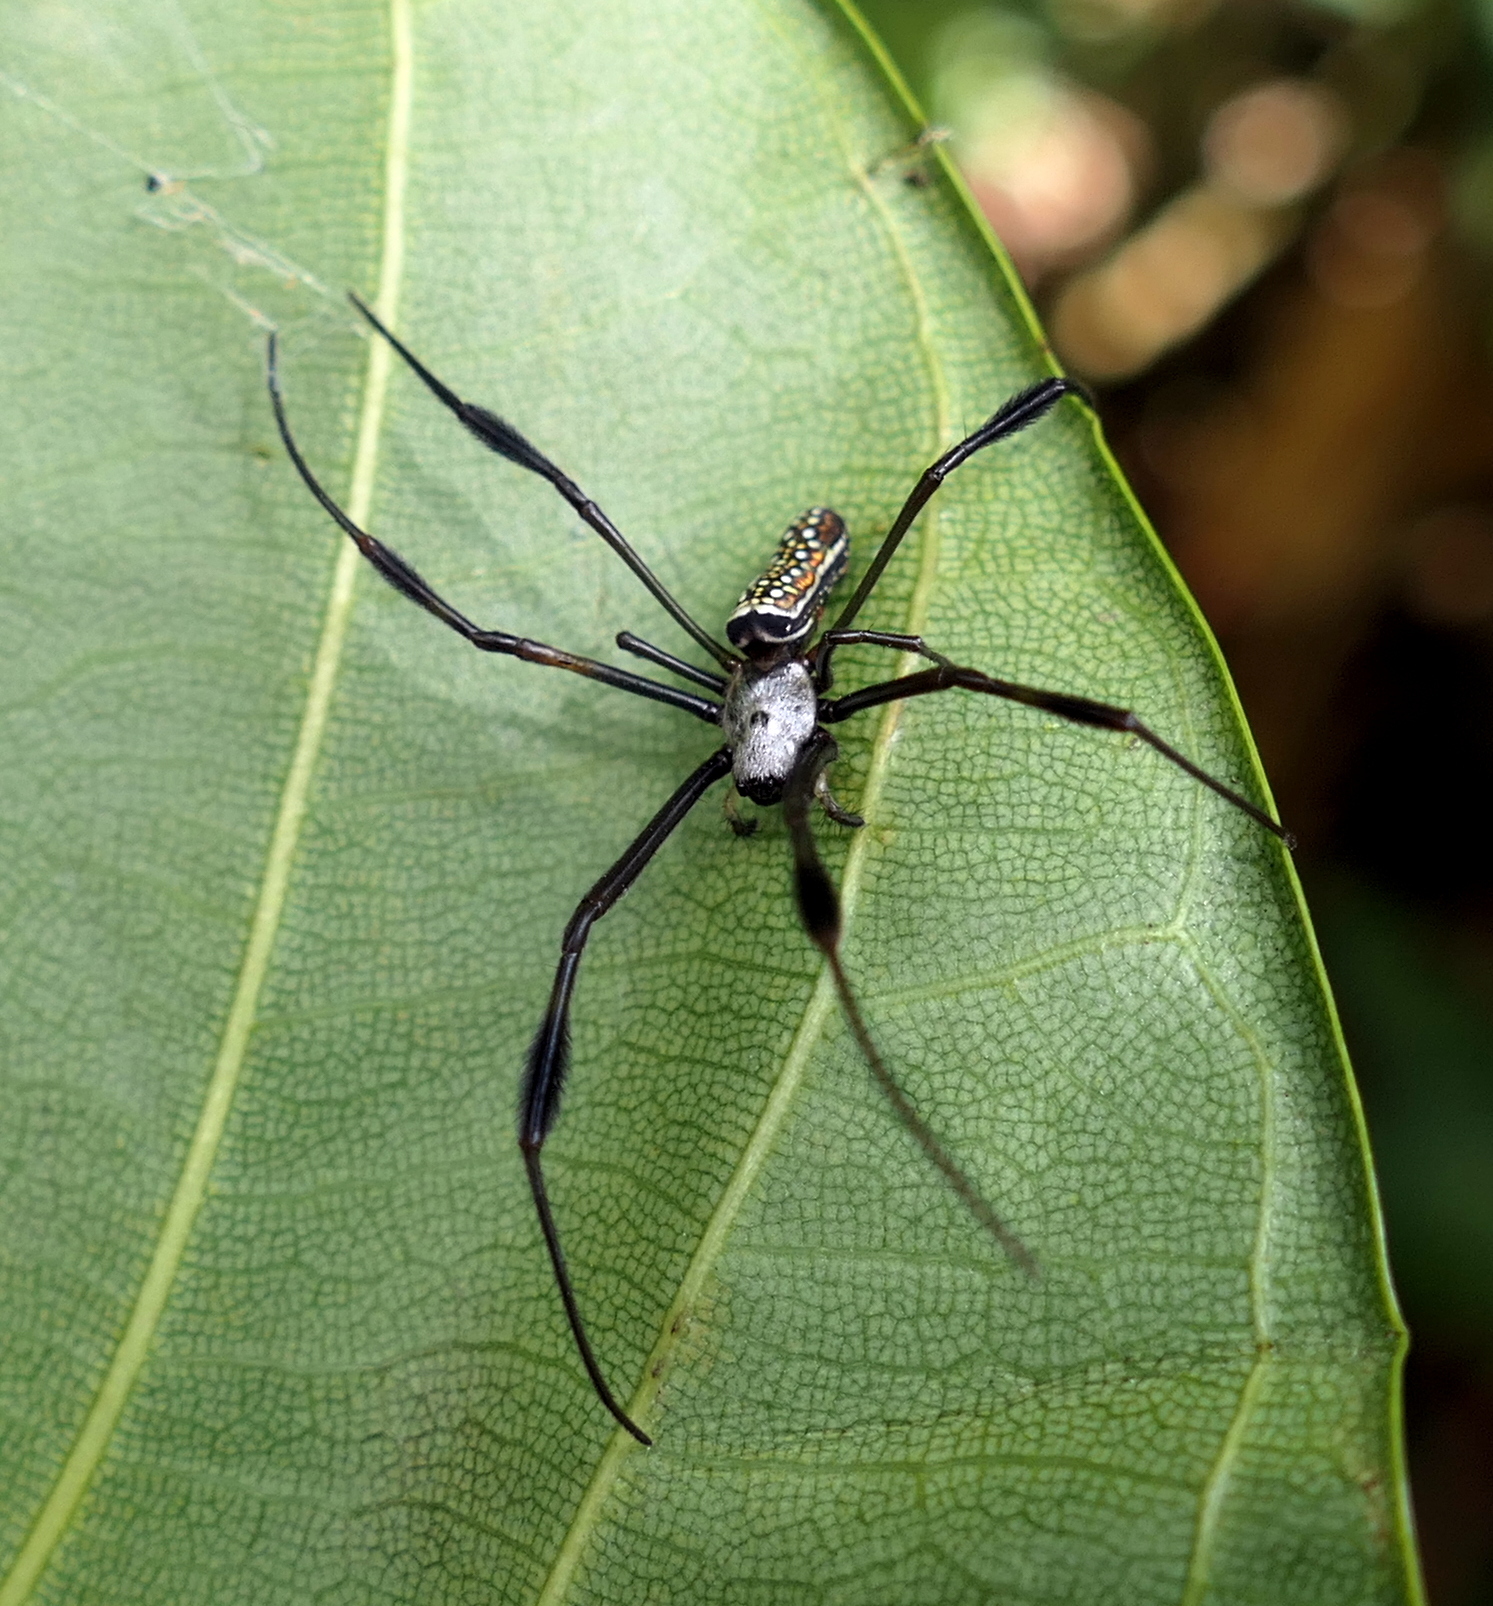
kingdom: Animalia
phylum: Arthropoda
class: Arachnida
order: Araneae
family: Araneidae
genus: Trichonephila
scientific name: Trichonephila clavipes
